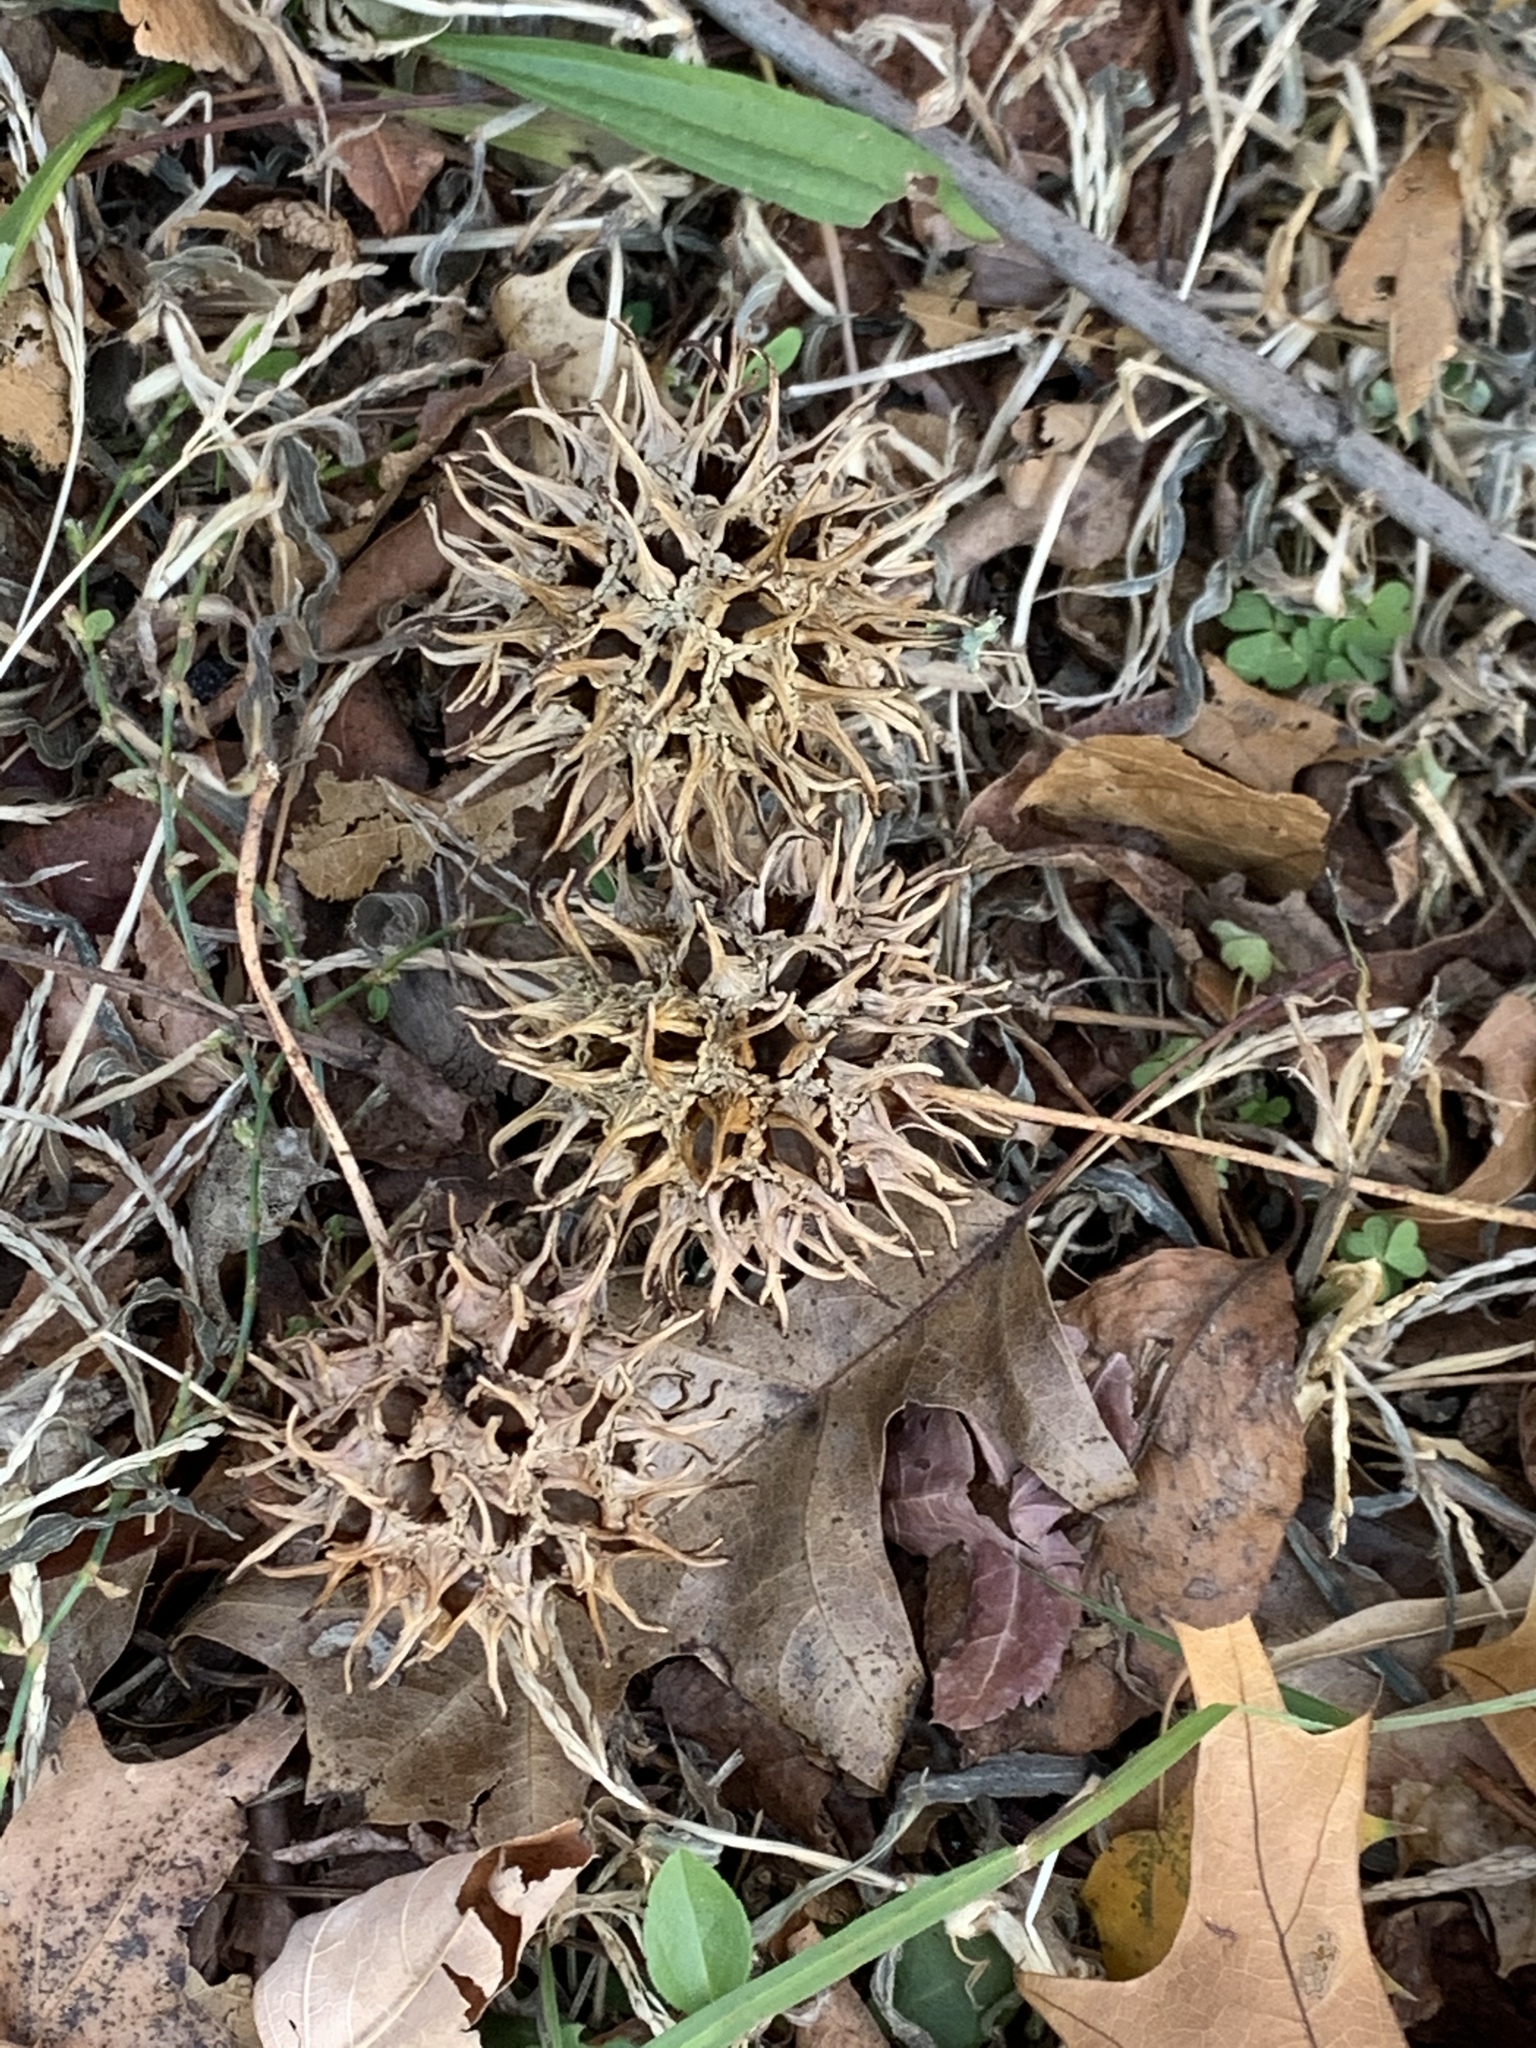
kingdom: Plantae
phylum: Tracheophyta
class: Magnoliopsida
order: Saxifragales
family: Altingiaceae
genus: Liquidambar
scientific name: Liquidambar styraciflua
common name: Sweet gum
